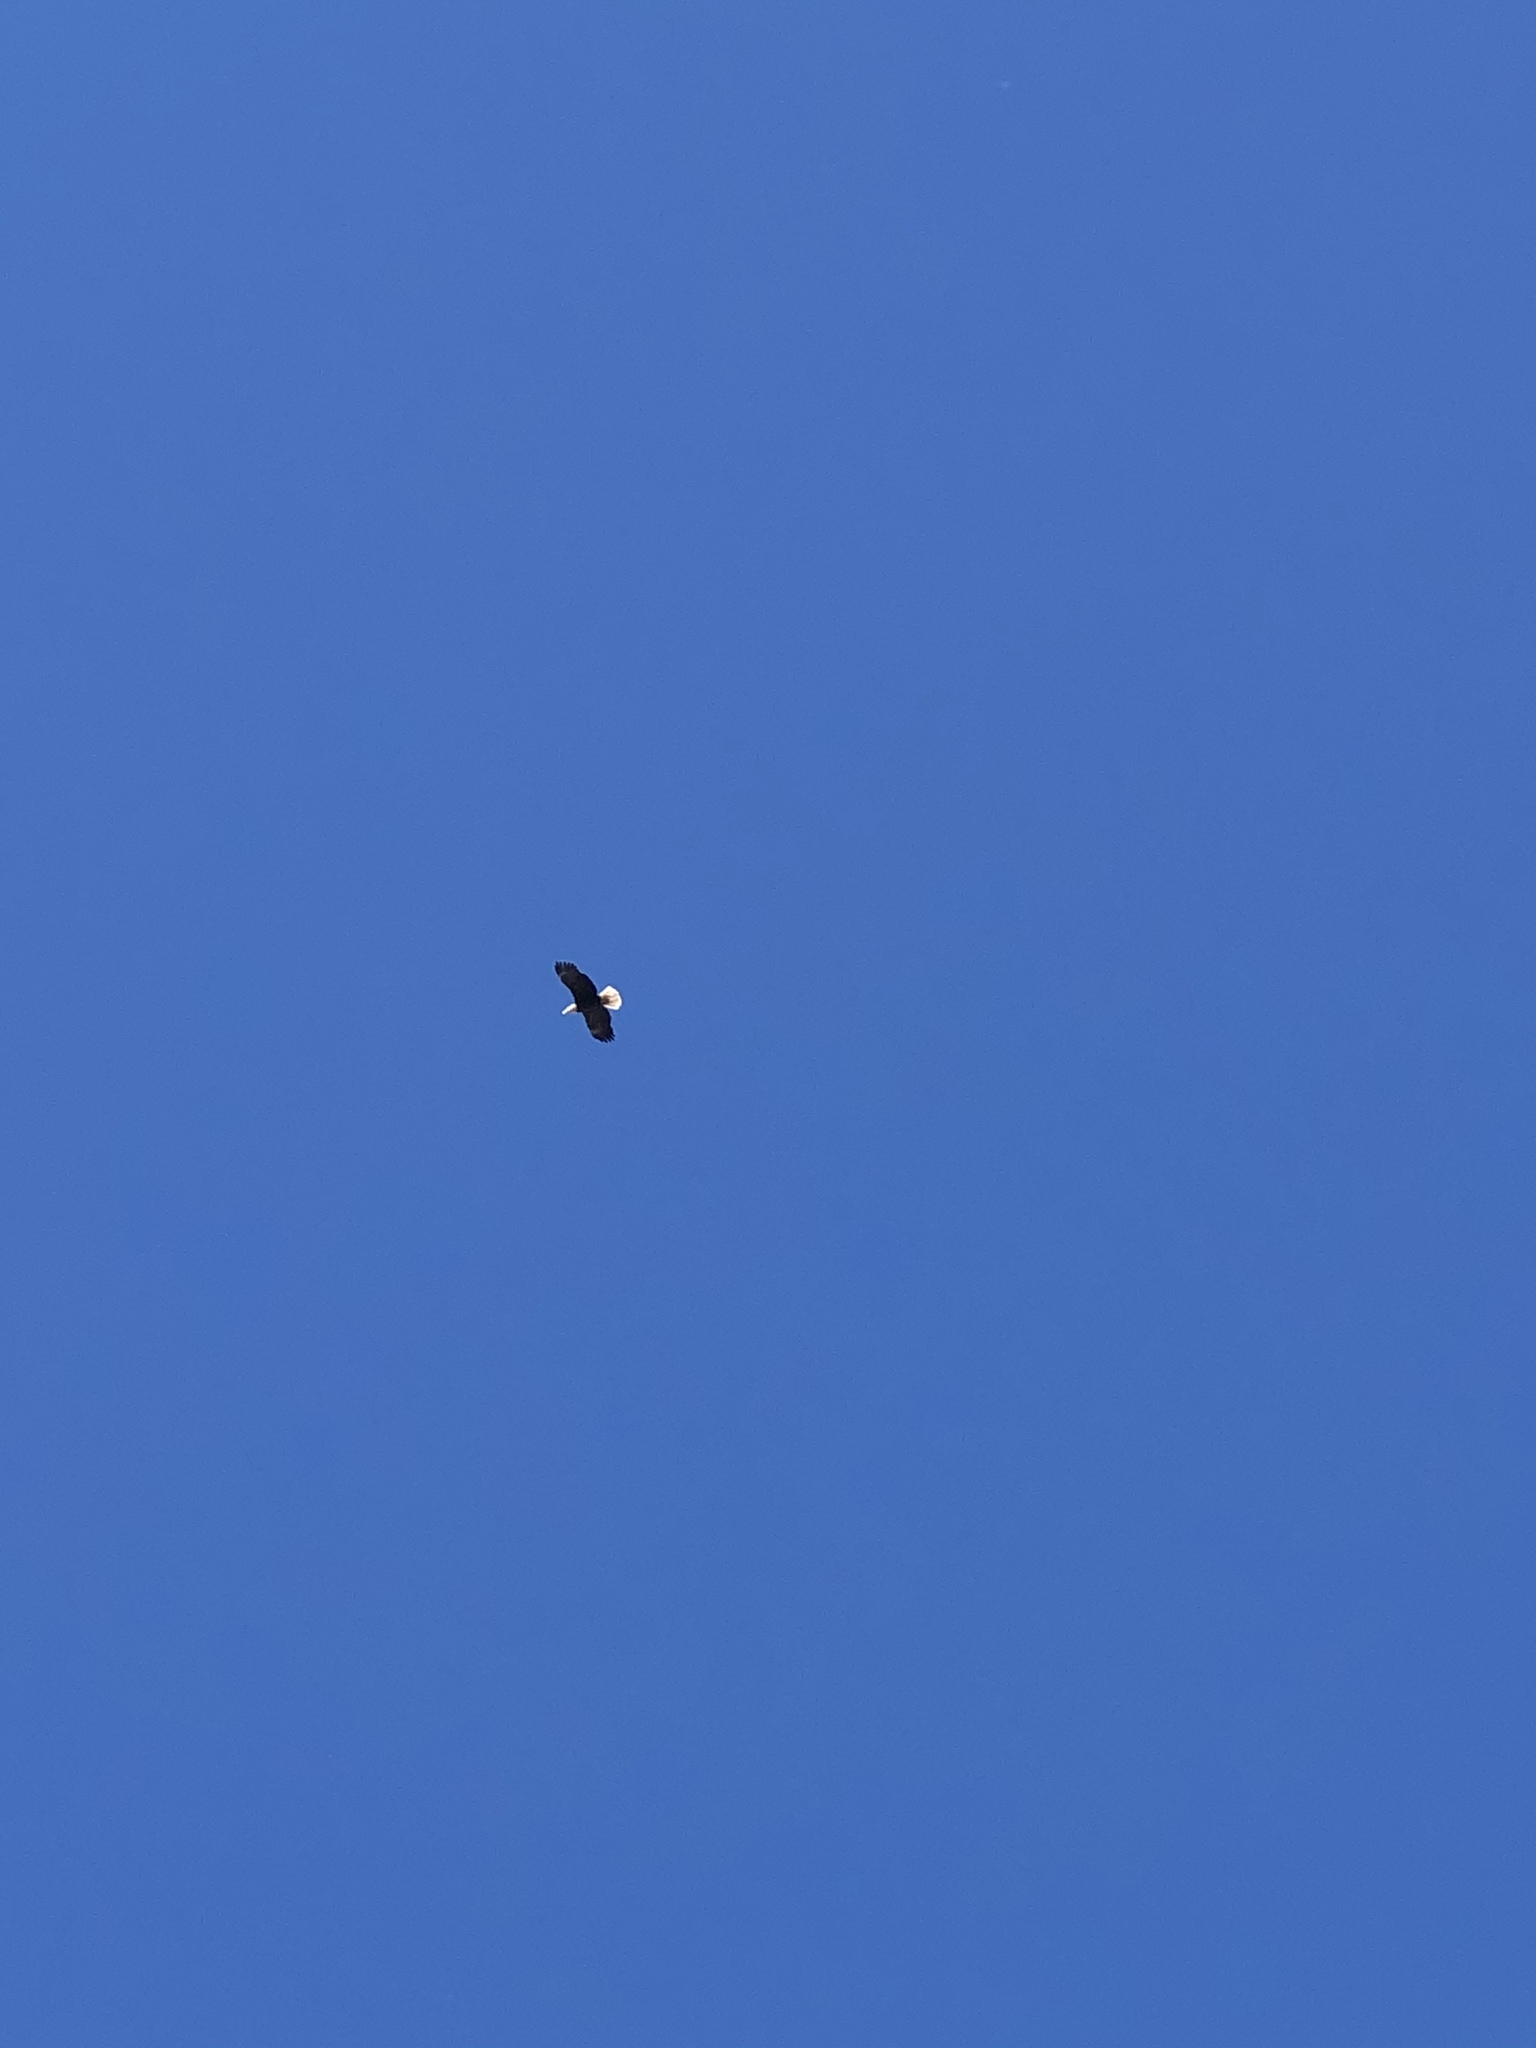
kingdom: Animalia
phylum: Chordata
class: Aves
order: Accipitriformes
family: Accipitridae
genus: Haliaeetus
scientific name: Haliaeetus leucocephalus
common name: Bald eagle
